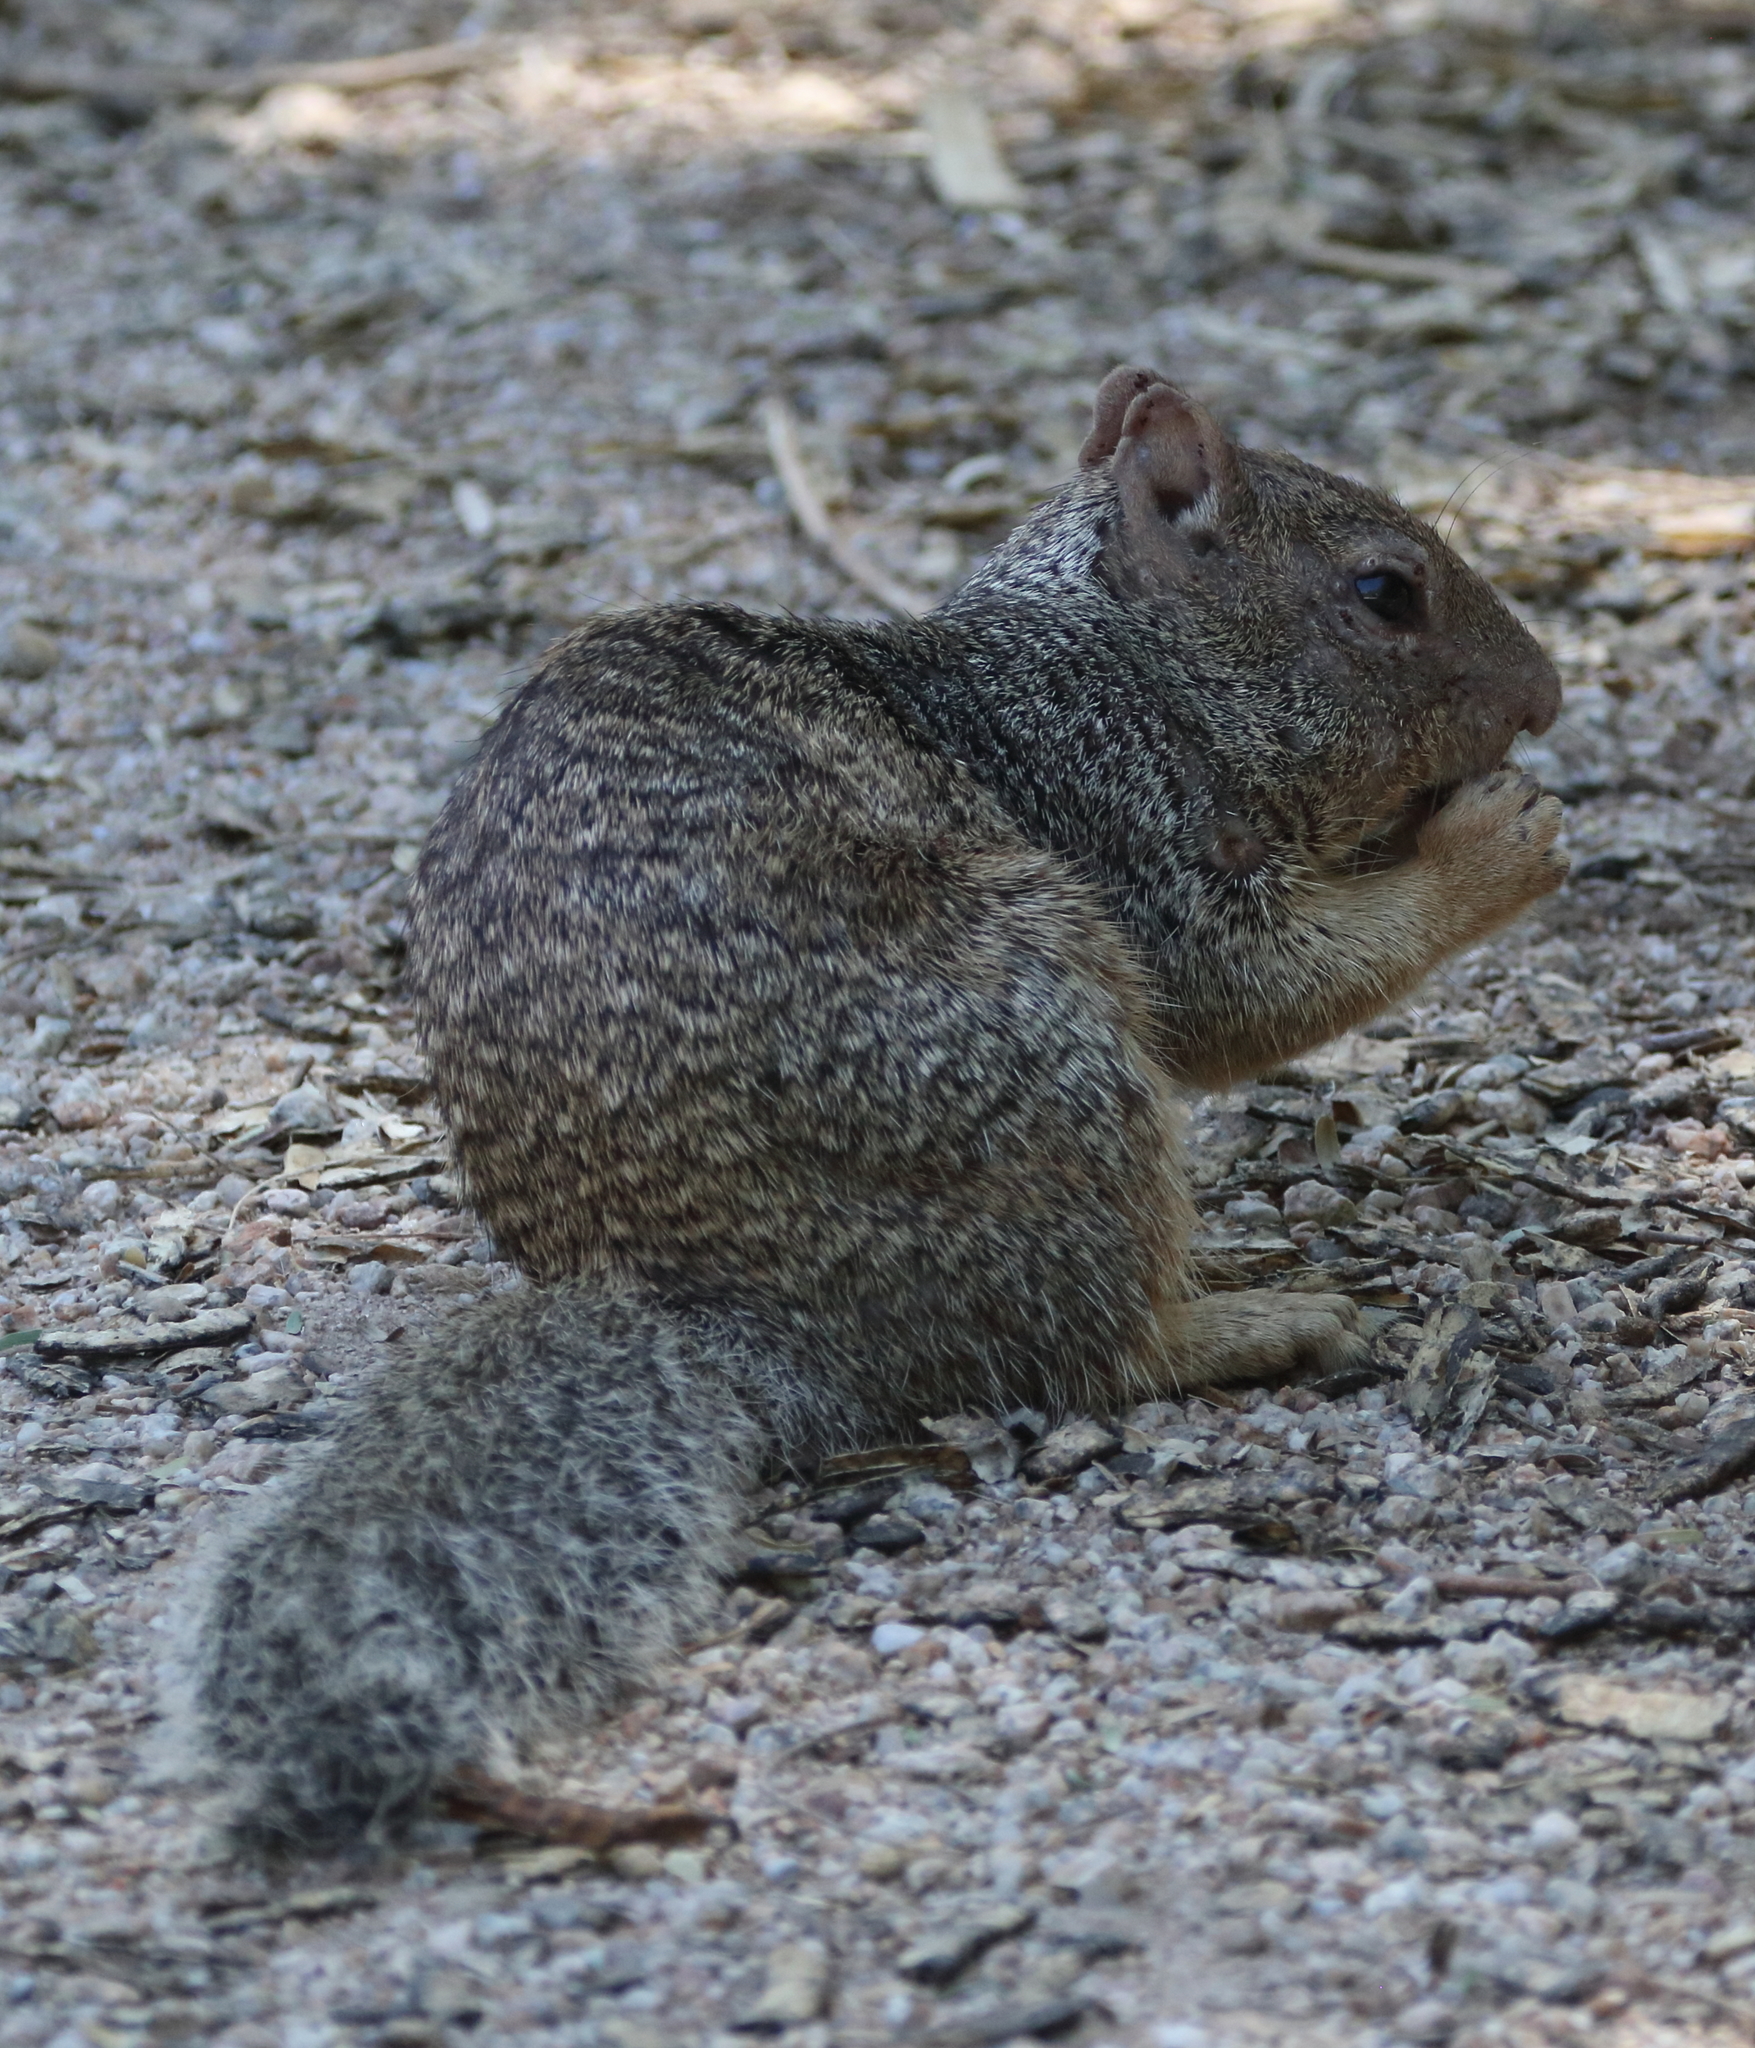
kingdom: Animalia
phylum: Chordata
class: Mammalia
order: Rodentia
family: Sciuridae
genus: Otospermophilus
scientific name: Otospermophilus variegatus
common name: Rock squirrel
